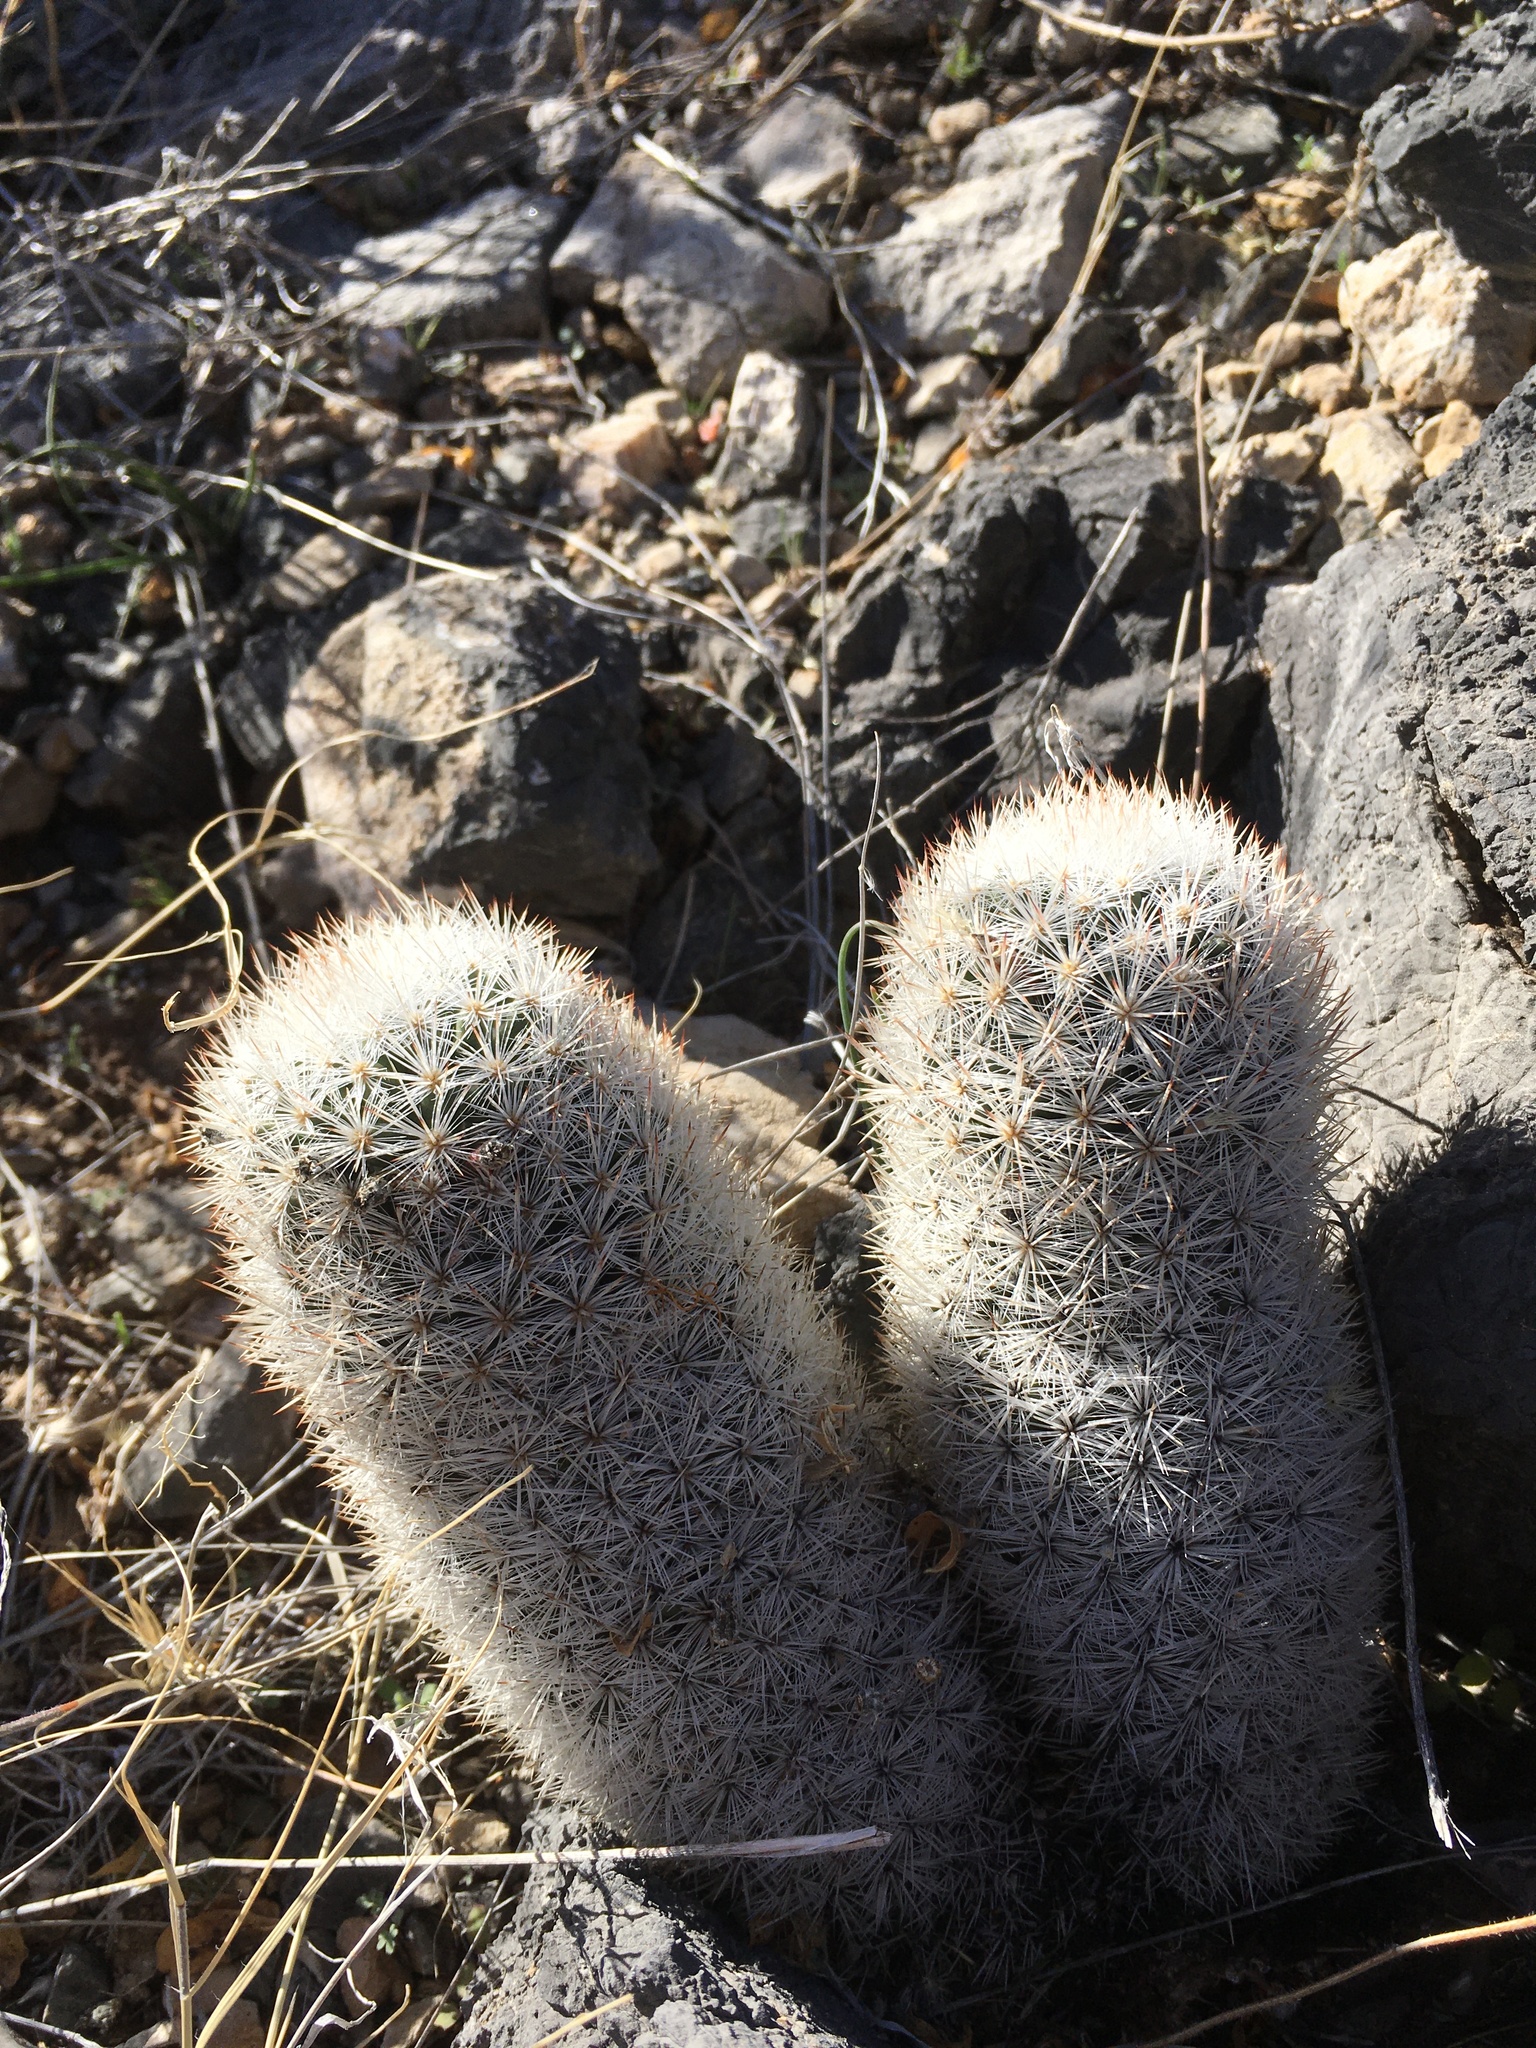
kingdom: Plantae
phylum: Tracheophyta
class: Magnoliopsida
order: Caryophyllales
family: Cactaceae
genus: Pelecyphora
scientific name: Pelecyphora sneedii
